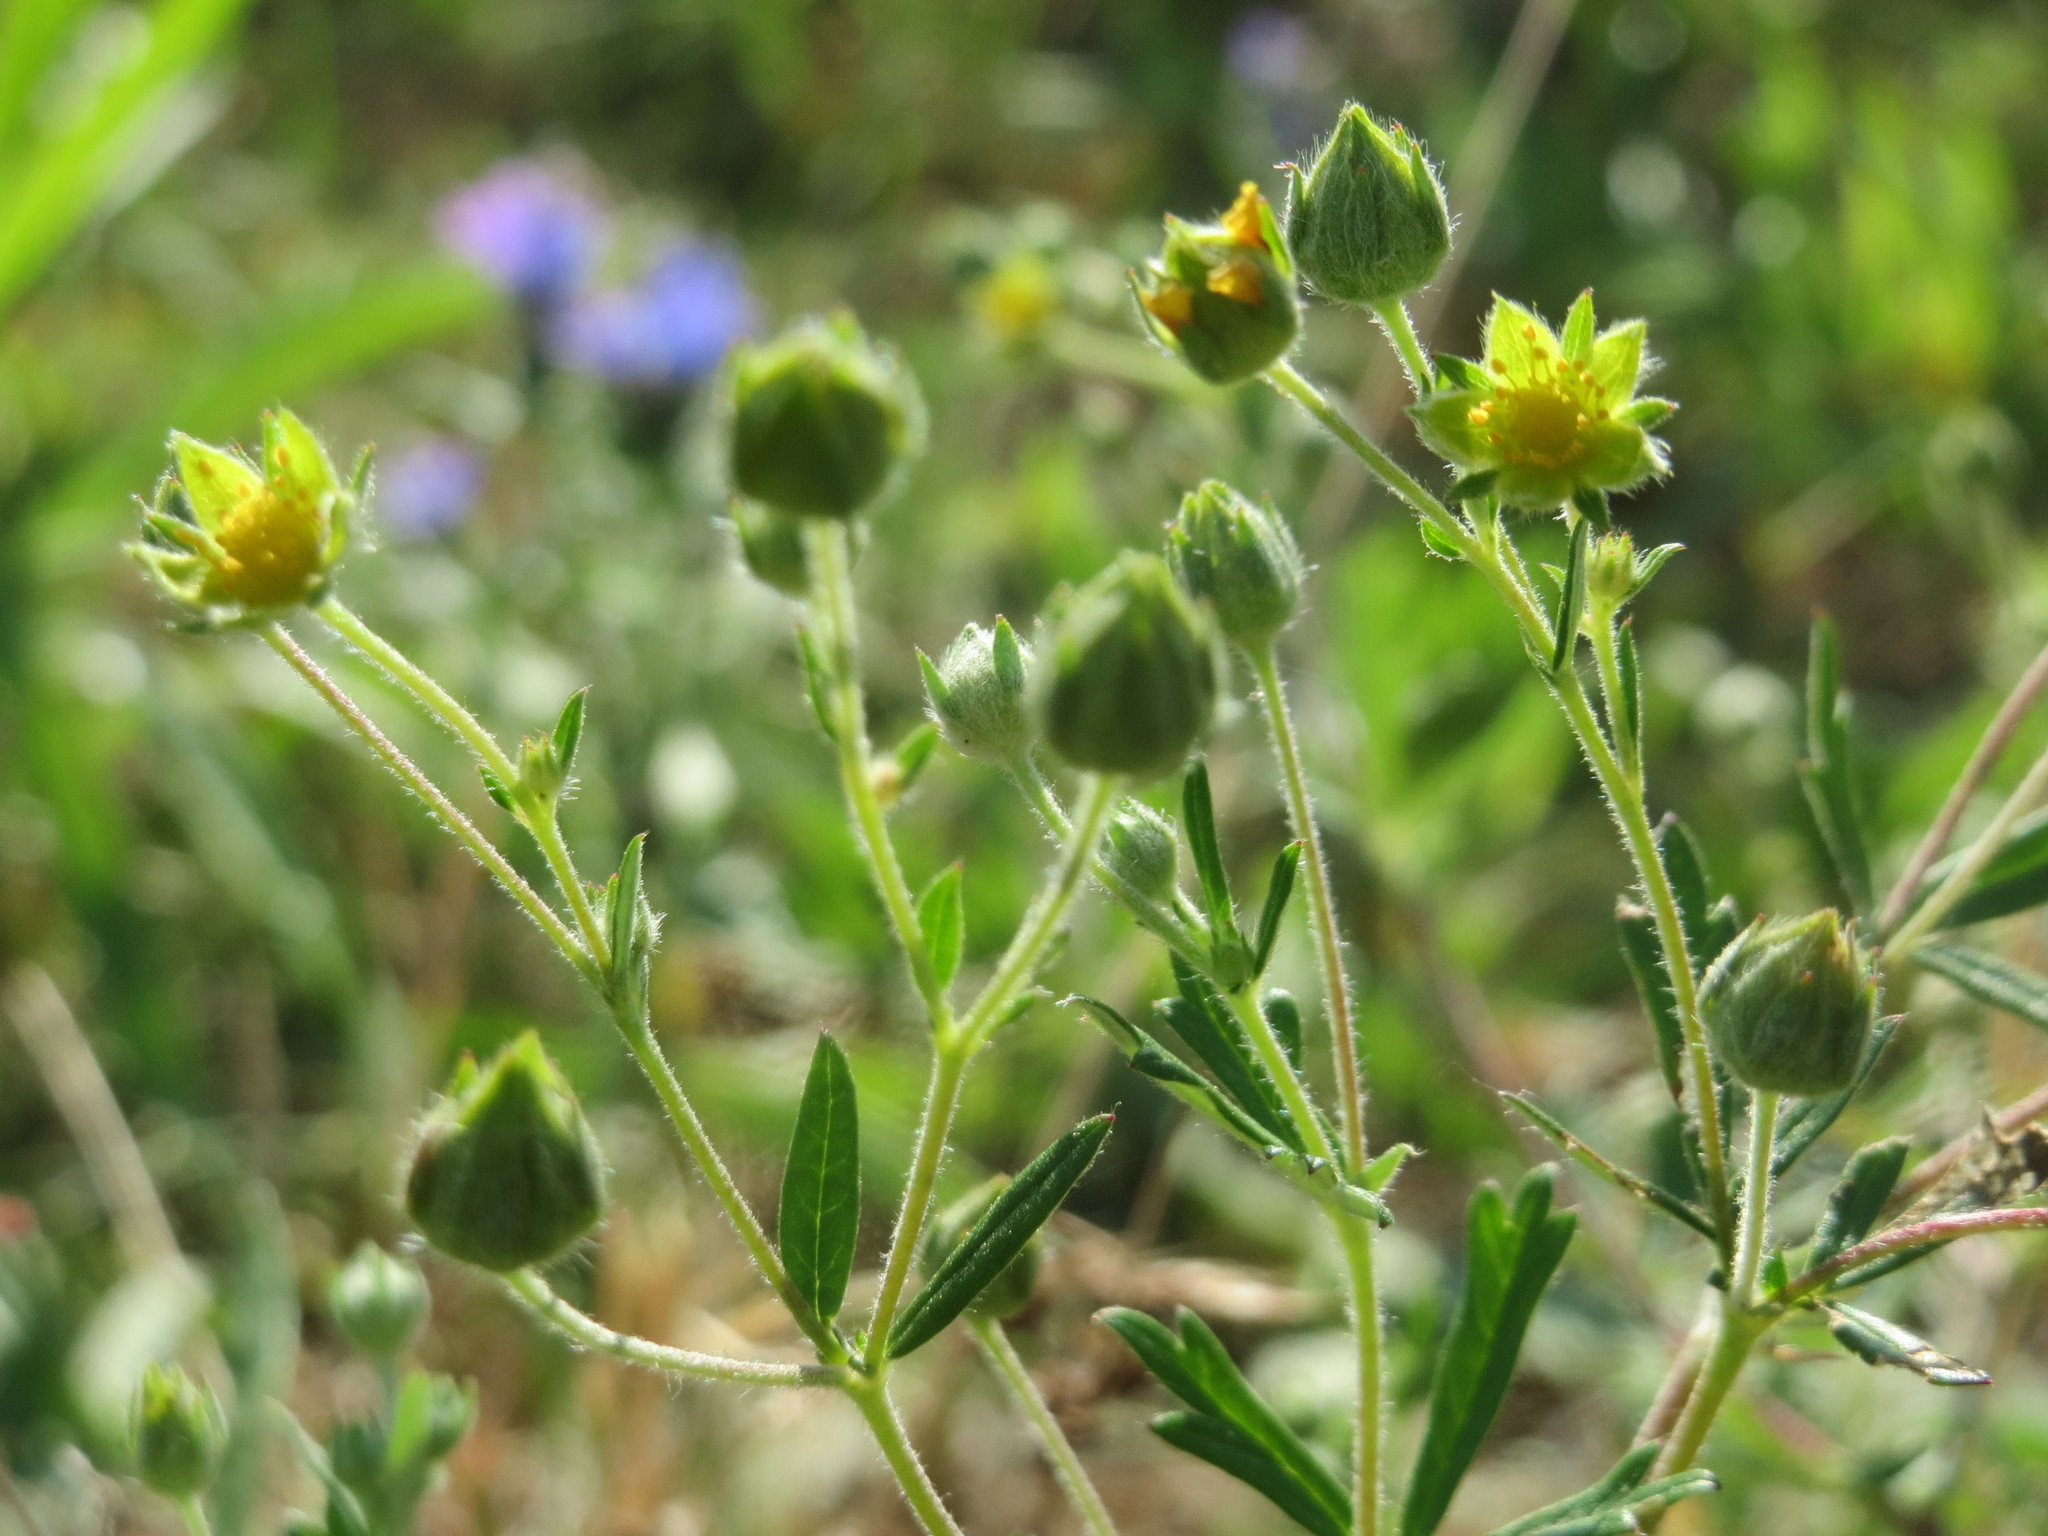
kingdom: Plantae
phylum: Tracheophyta
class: Magnoliopsida
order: Rosales
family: Rosaceae
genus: Potentilla
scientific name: Potentilla argentea
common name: Hoary cinquefoil
